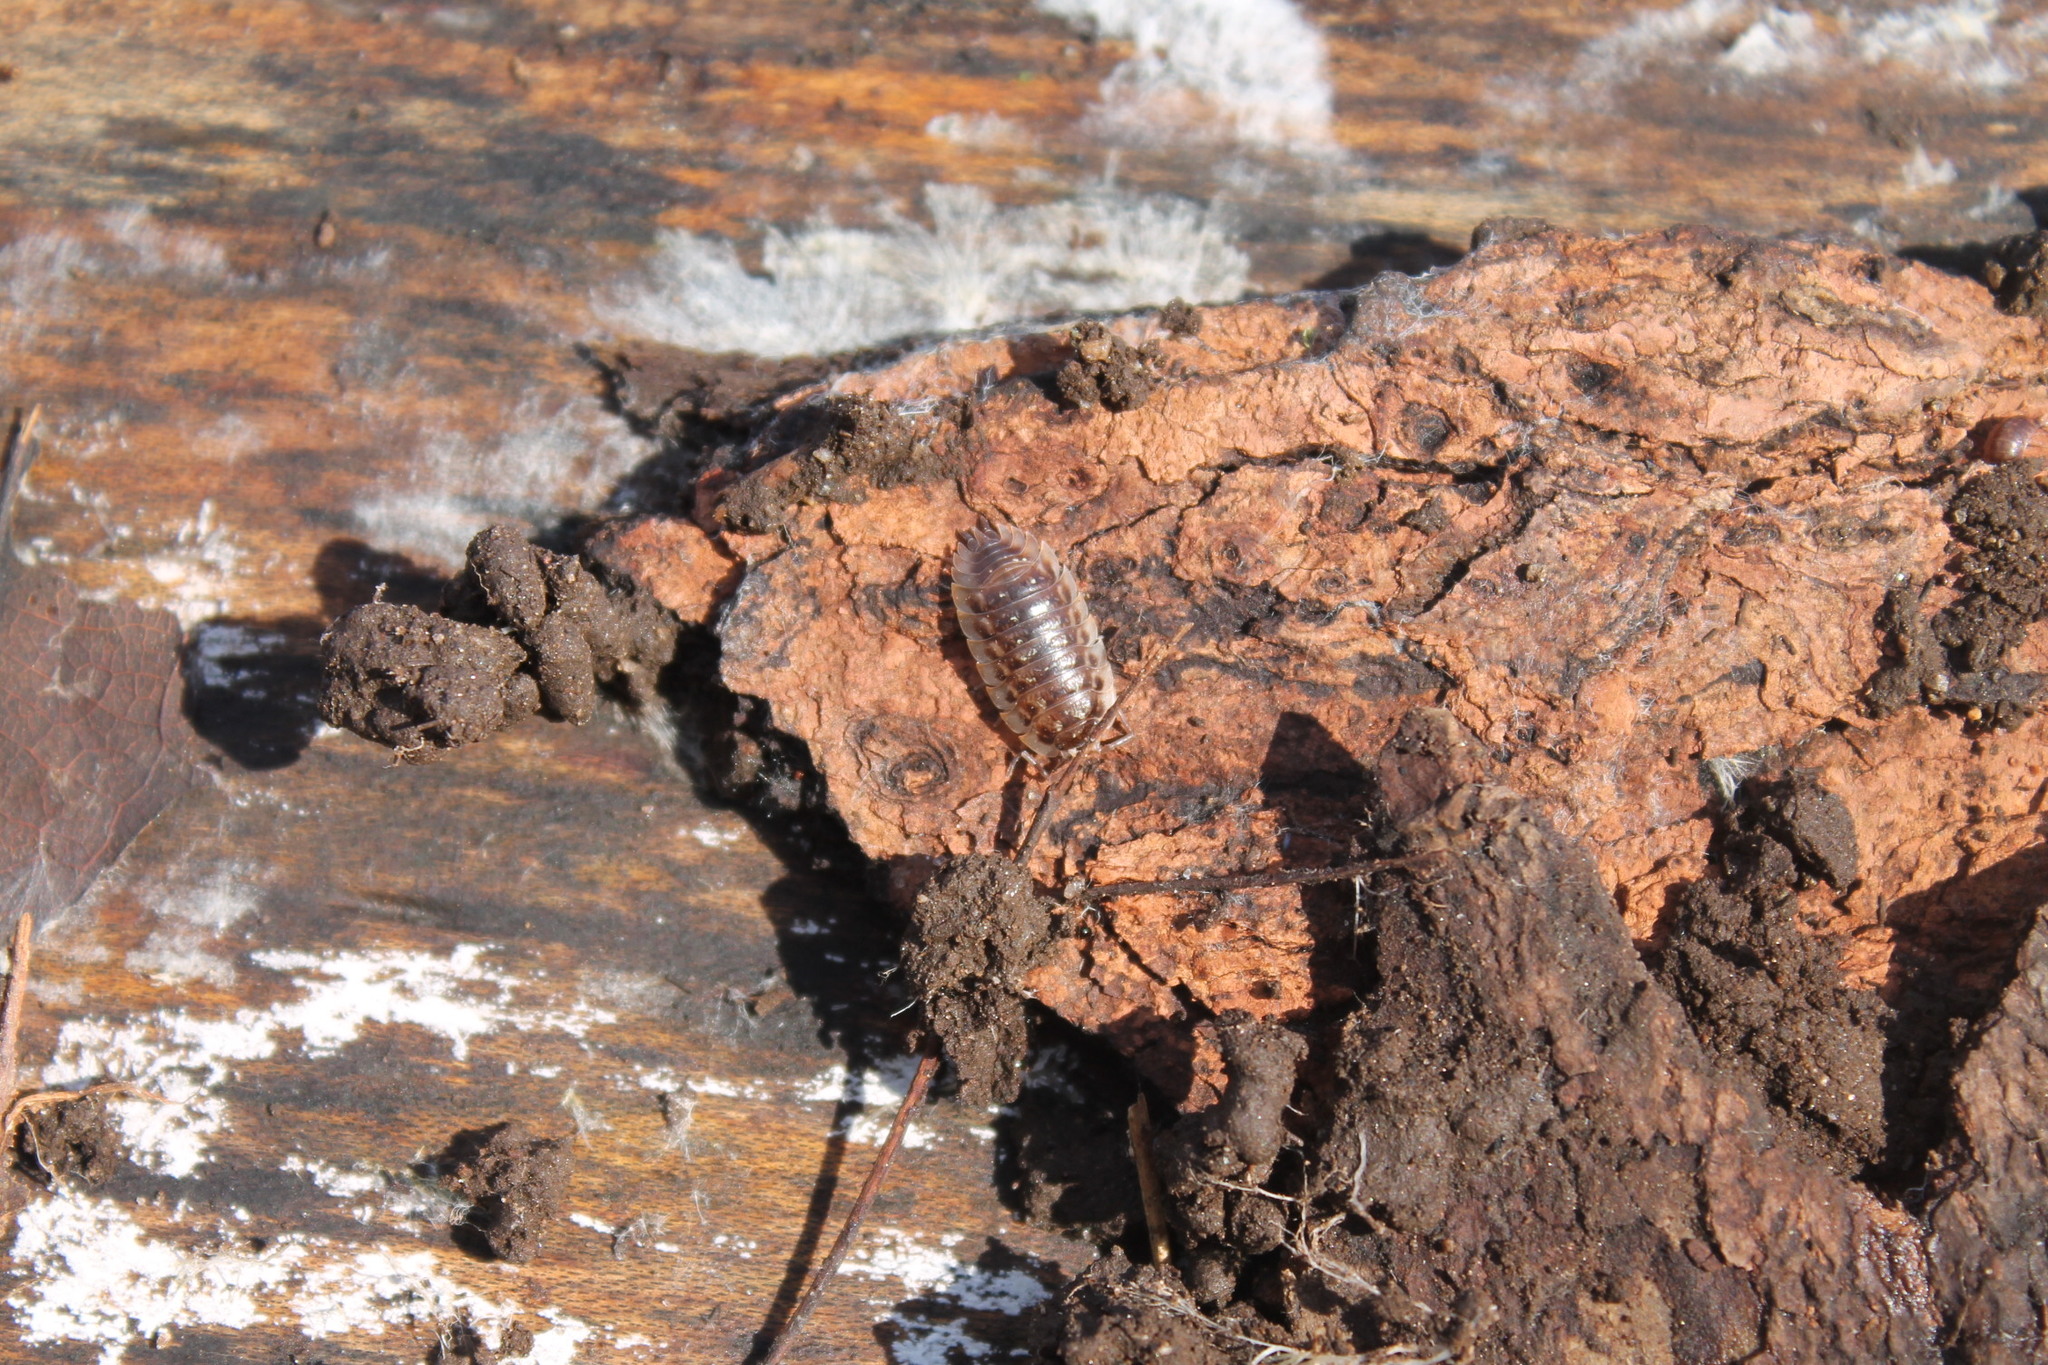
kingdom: Animalia
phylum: Arthropoda
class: Malacostraca
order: Isopoda
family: Oniscidae
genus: Oniscus
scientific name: Oniscus asellus
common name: Common shiny woodlouse
